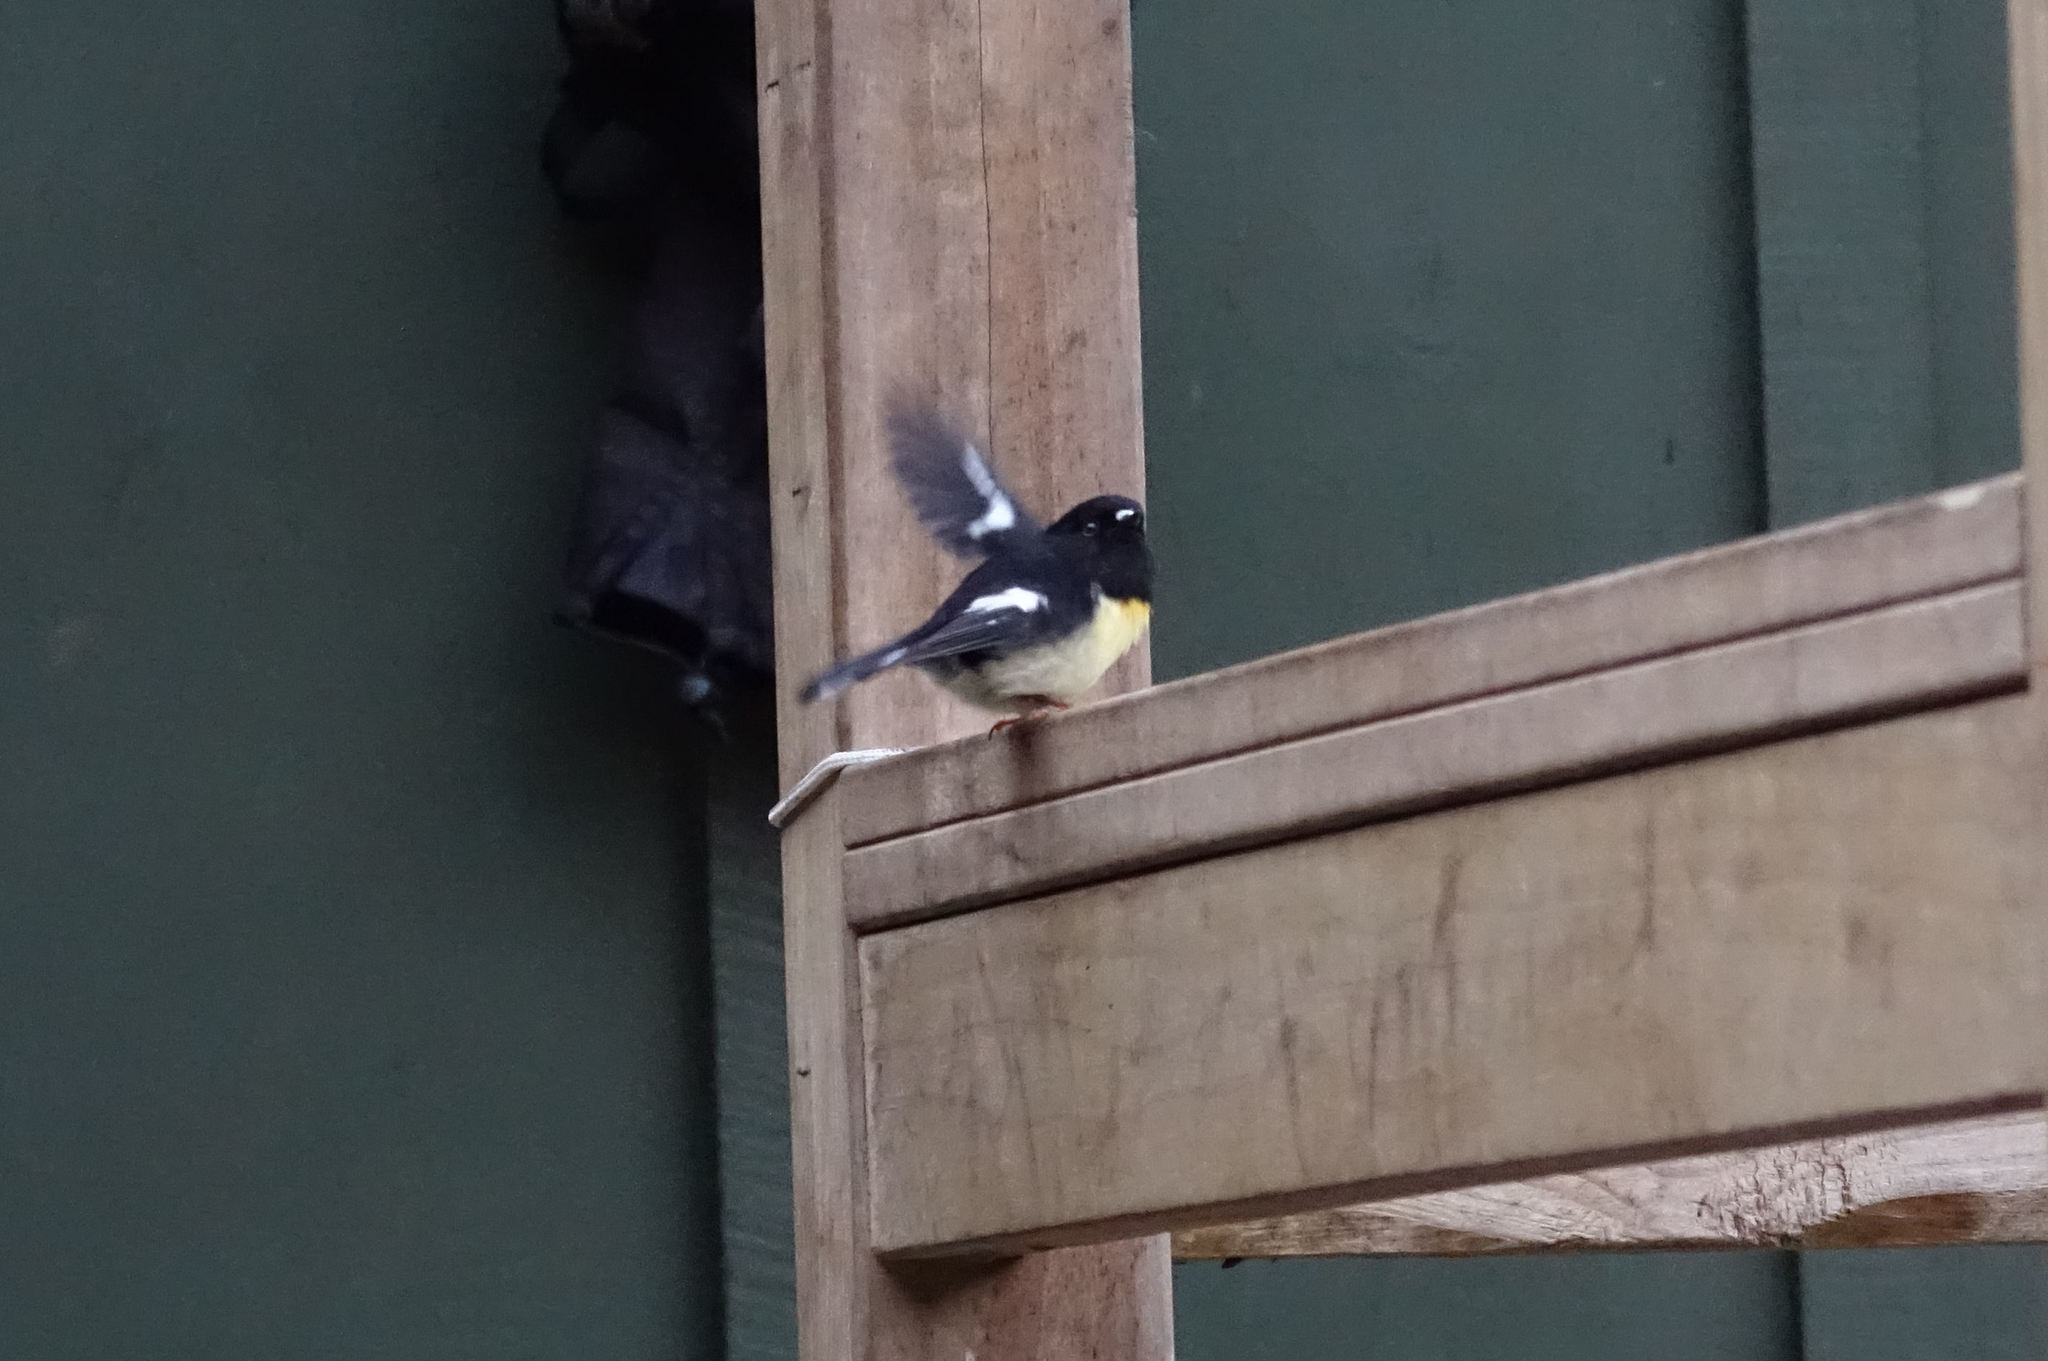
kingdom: Animalia
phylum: Chordata
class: Aves
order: Passeriformes
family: Petroicidae
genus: Petroica
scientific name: Petroica macrocephala
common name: Tomtit
